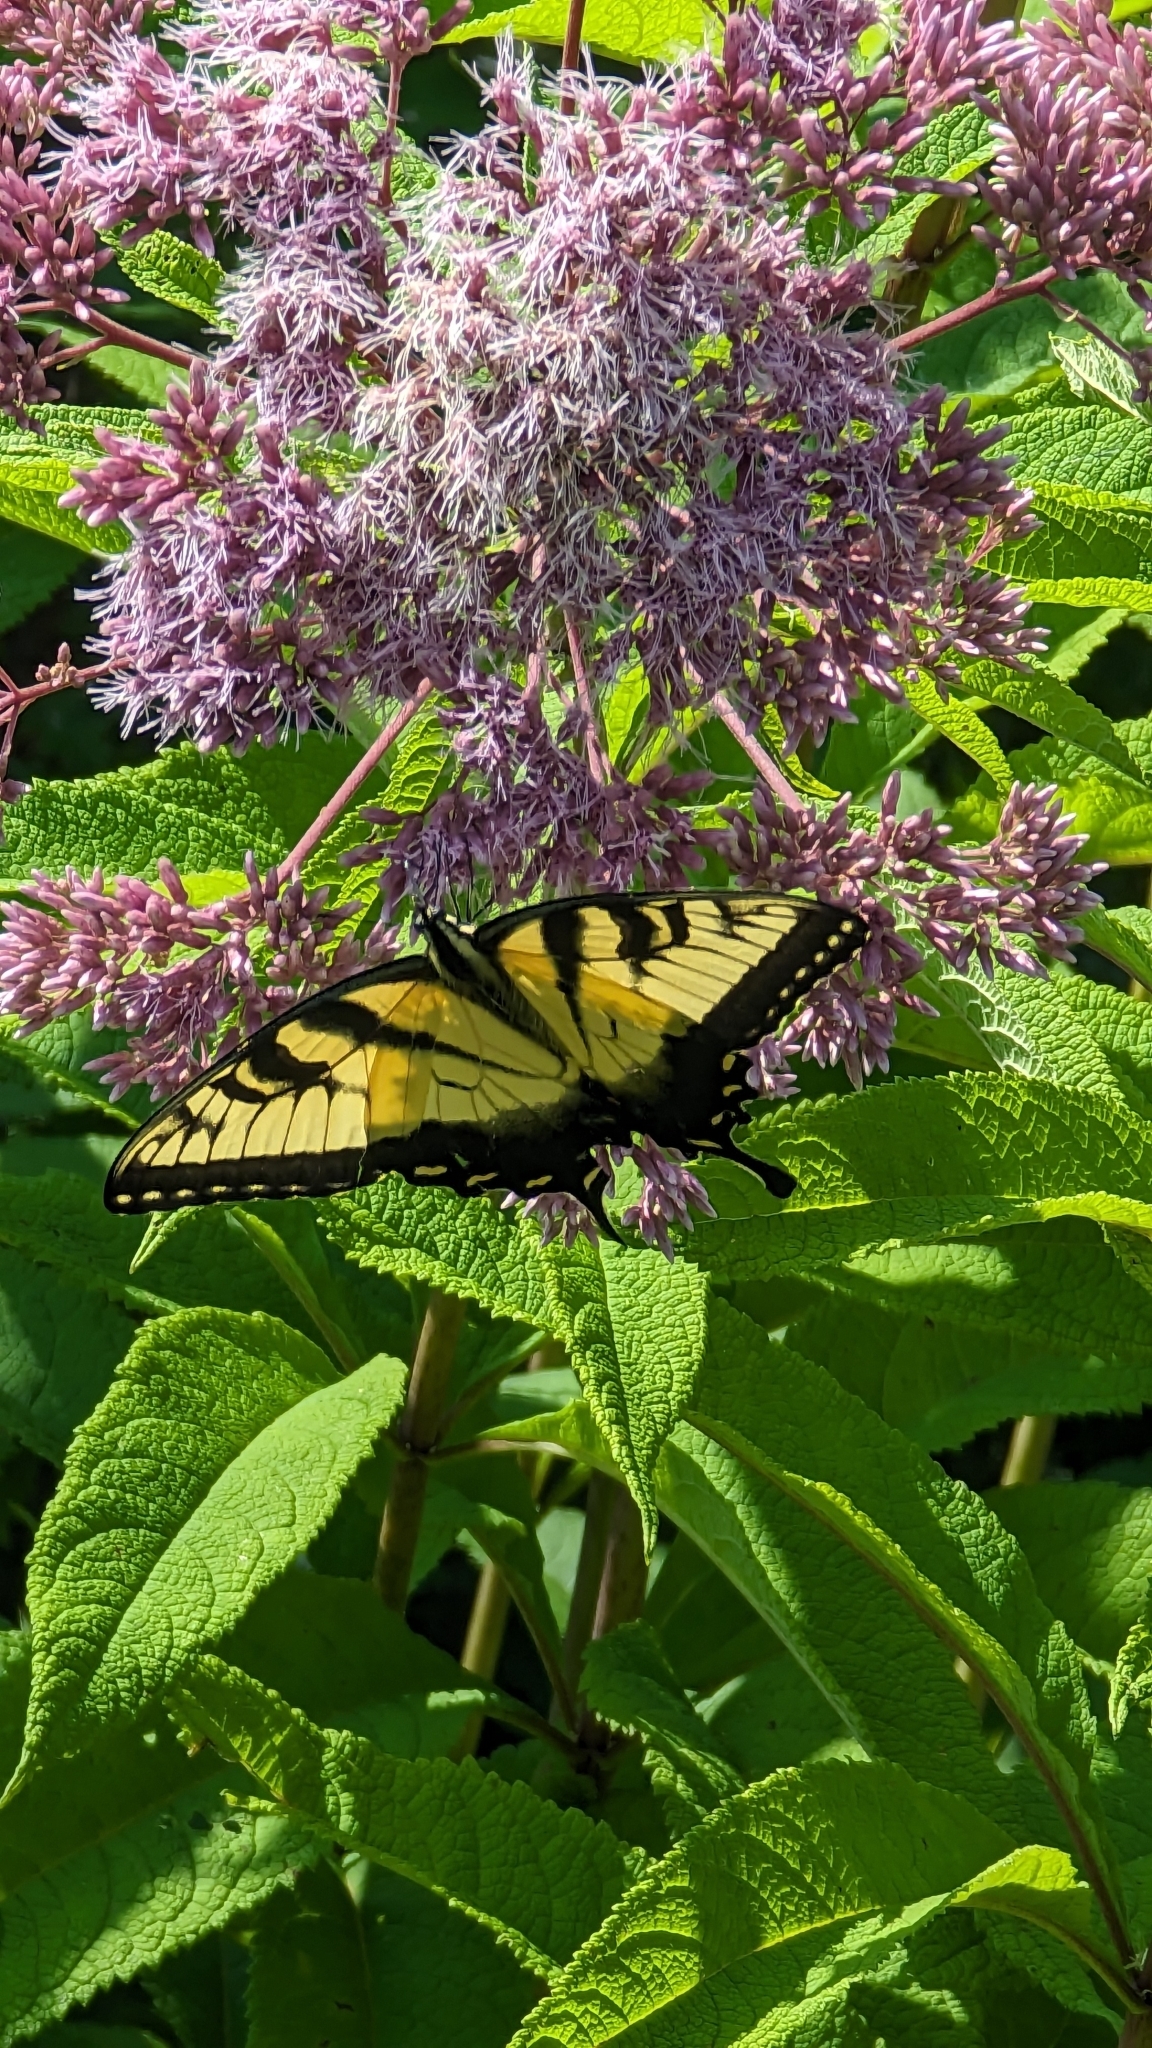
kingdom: Animalia
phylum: Arthropoda
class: Insecta
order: Lepidoptera
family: Papilionidae
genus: Papilio
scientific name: Papilio glaucus
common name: Tiger swallowtail
